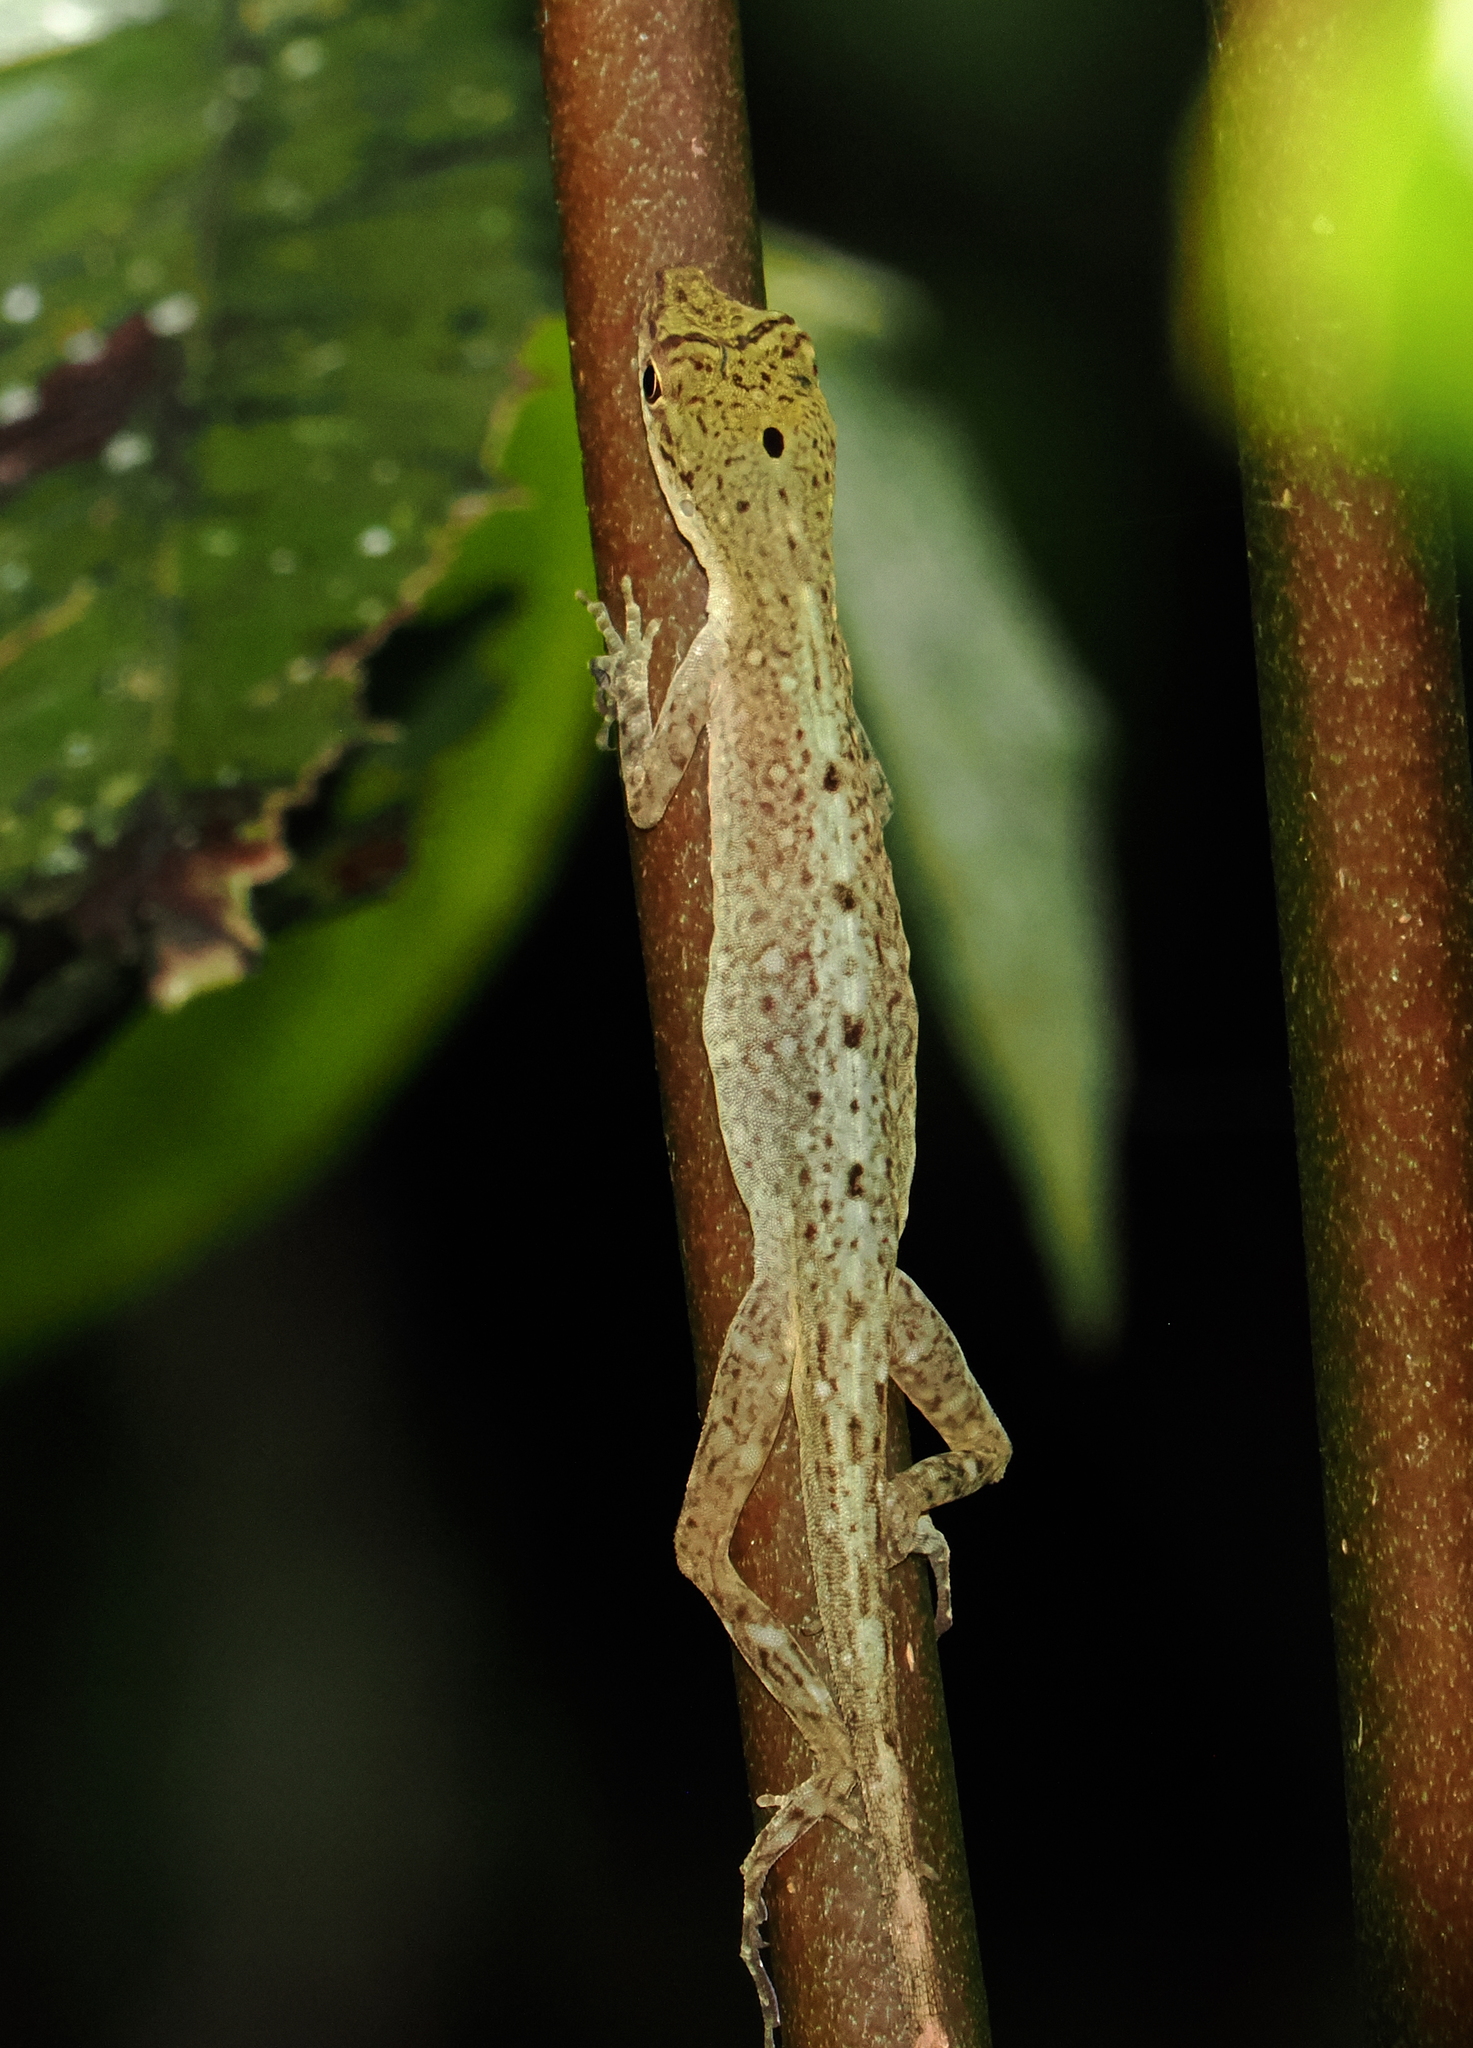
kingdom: Animalia
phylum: Chordata
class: Squamata
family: Dactyloidae
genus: Anolis
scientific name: Anolis maculiventris
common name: Blotchbelly anole
